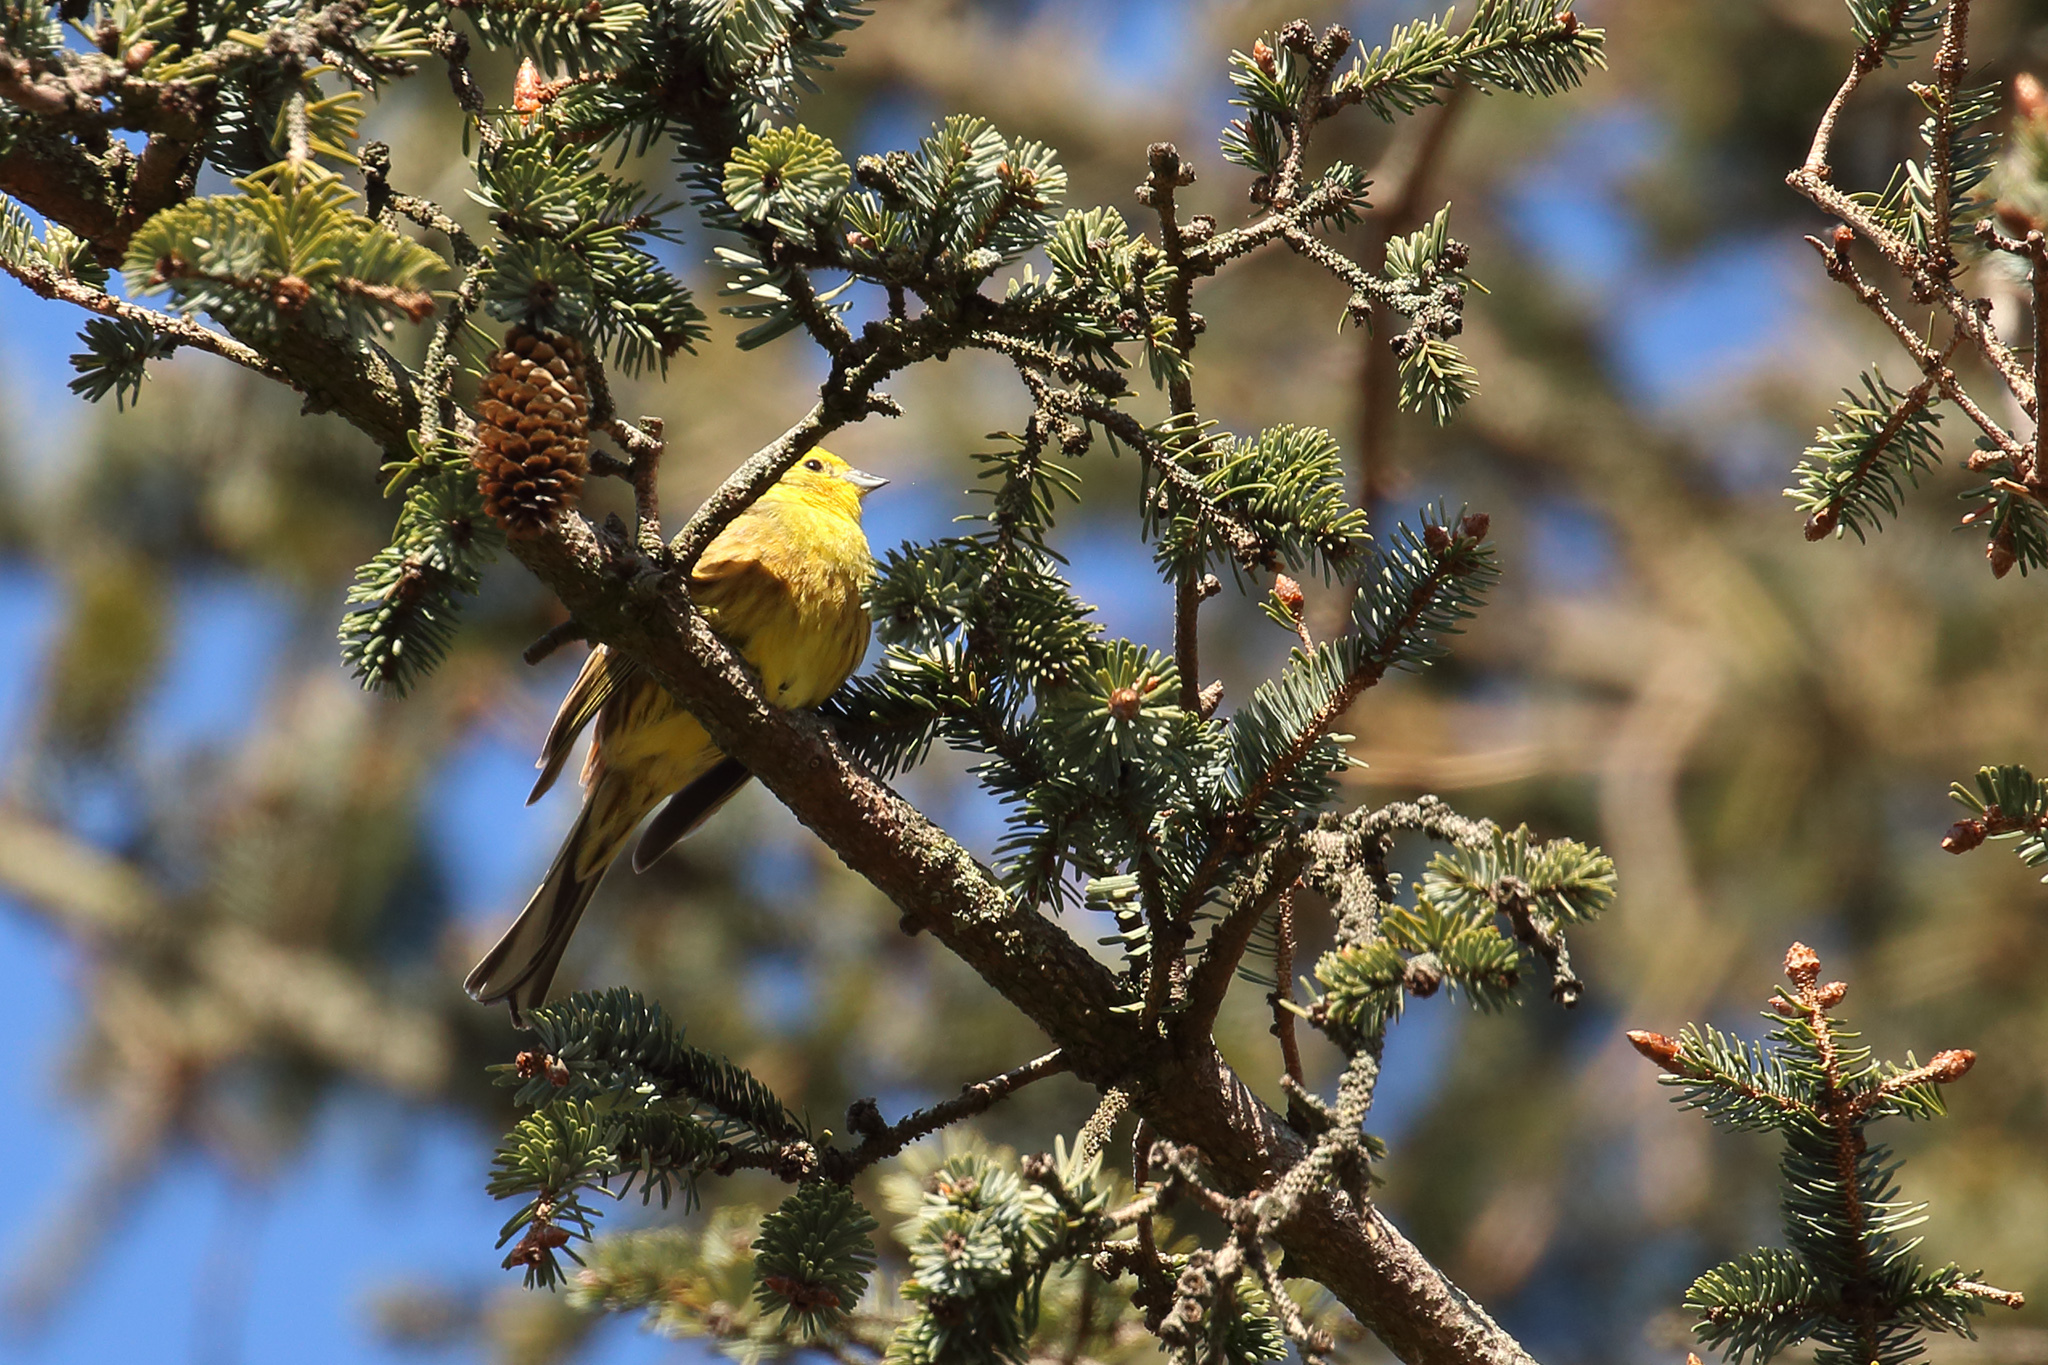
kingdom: Animalia
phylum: Chordata
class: Aves
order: Passeriformes
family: Emberizidae
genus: Emberiza
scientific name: Emberiza citrinella
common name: Yellowhammer
